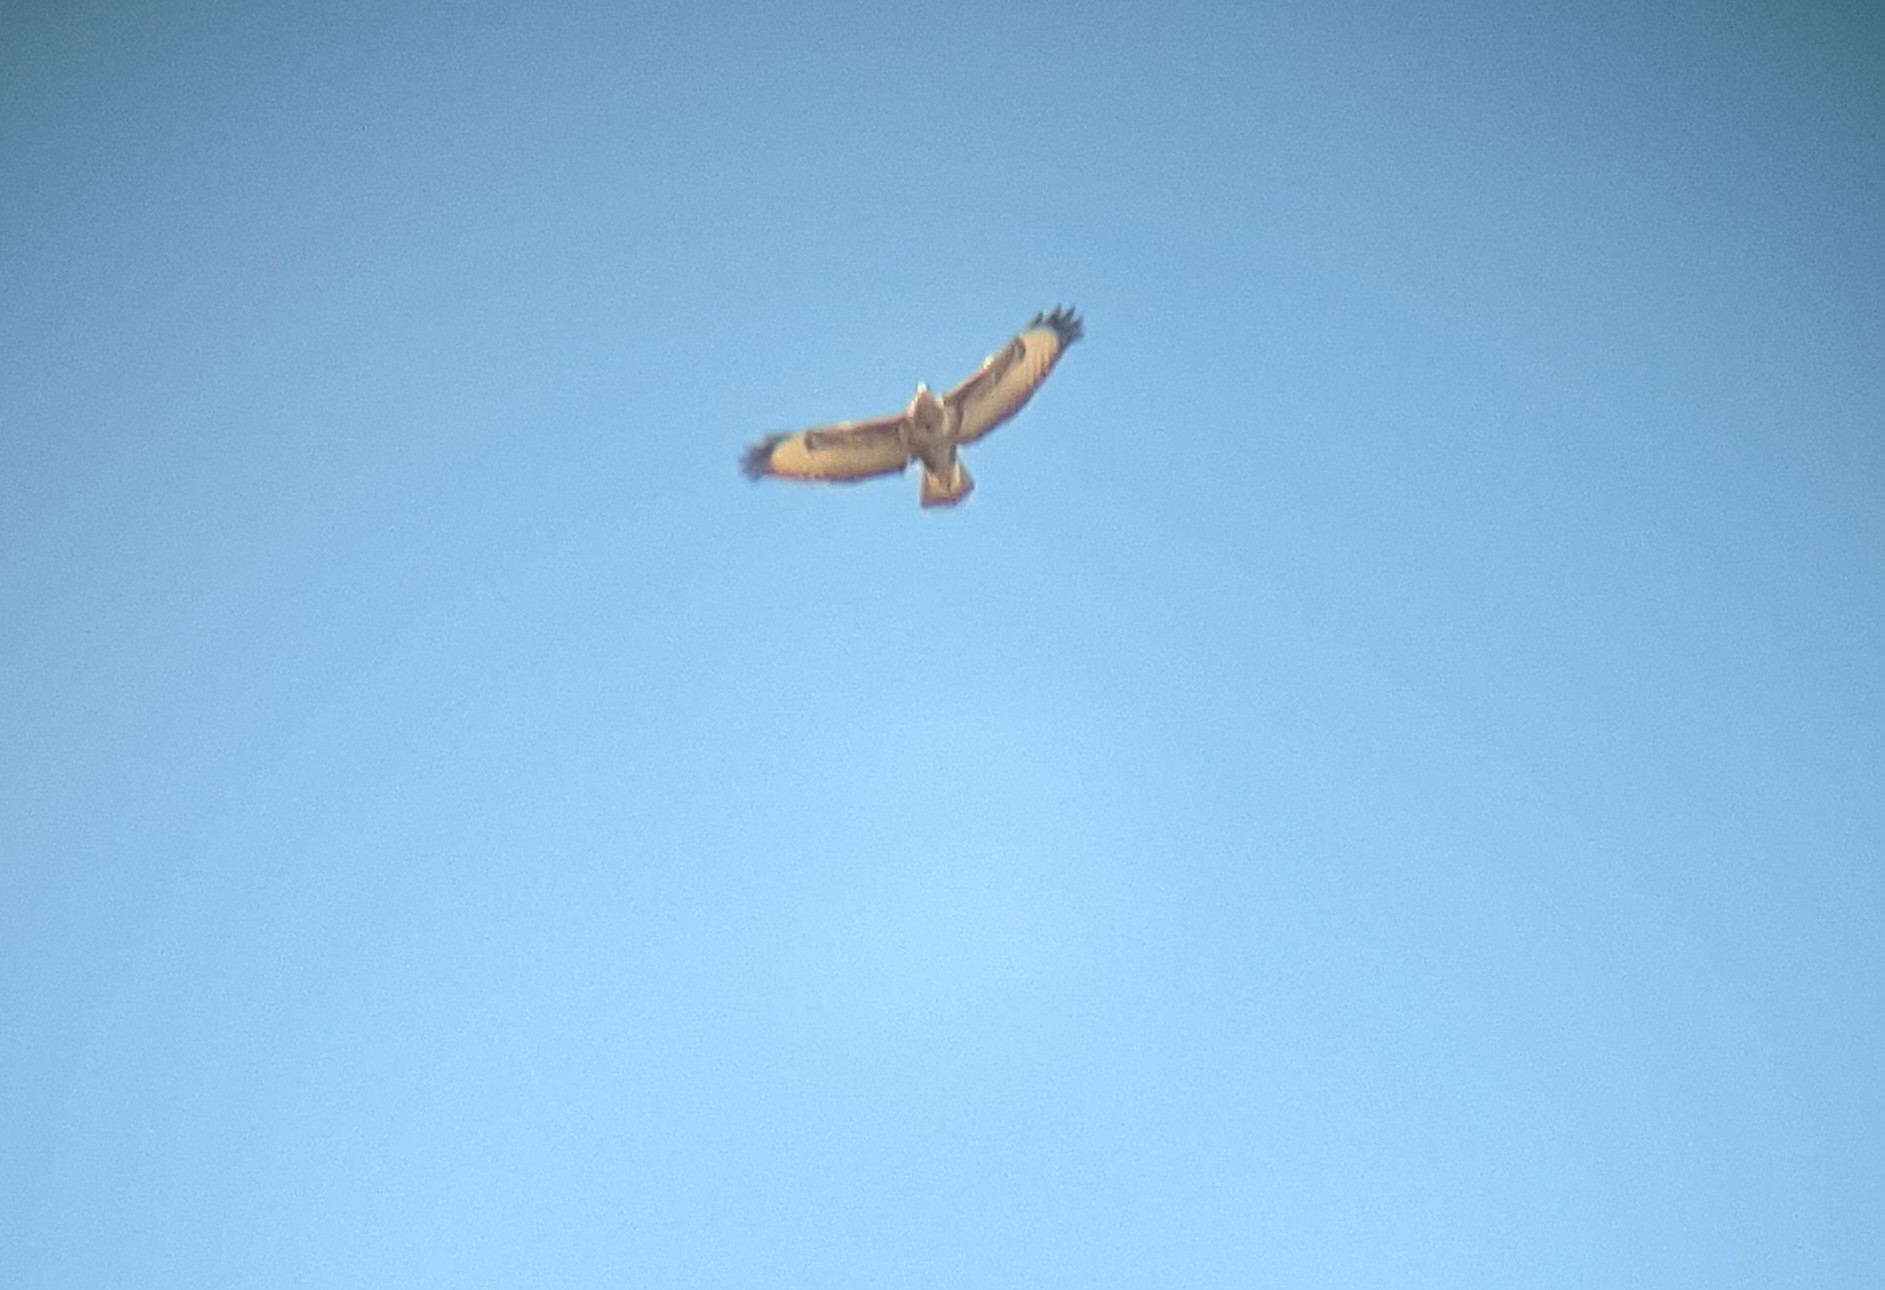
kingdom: Animalia
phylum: Chordata
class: Aves
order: Accipitriformes
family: Accipitridae
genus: Buteo
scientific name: Buteo buteo
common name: Common buzzard
